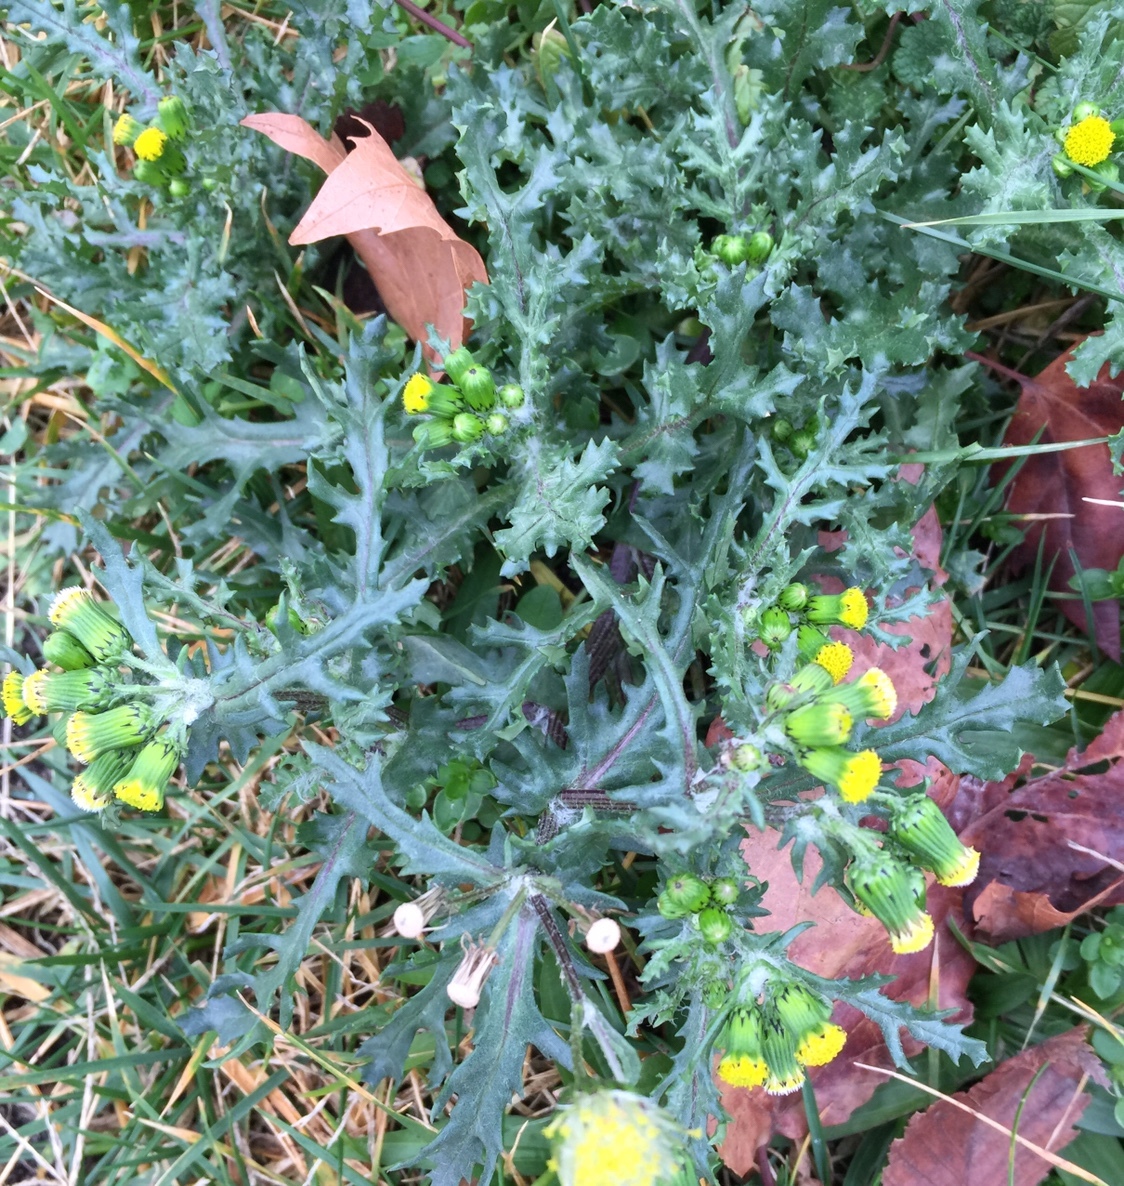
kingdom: Plantae
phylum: Tracheophyta
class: Magnoliopsida
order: Asterales
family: Asteraceae
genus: Senecio
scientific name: Senecio vulgaris
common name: Old-man-in-the-spring
